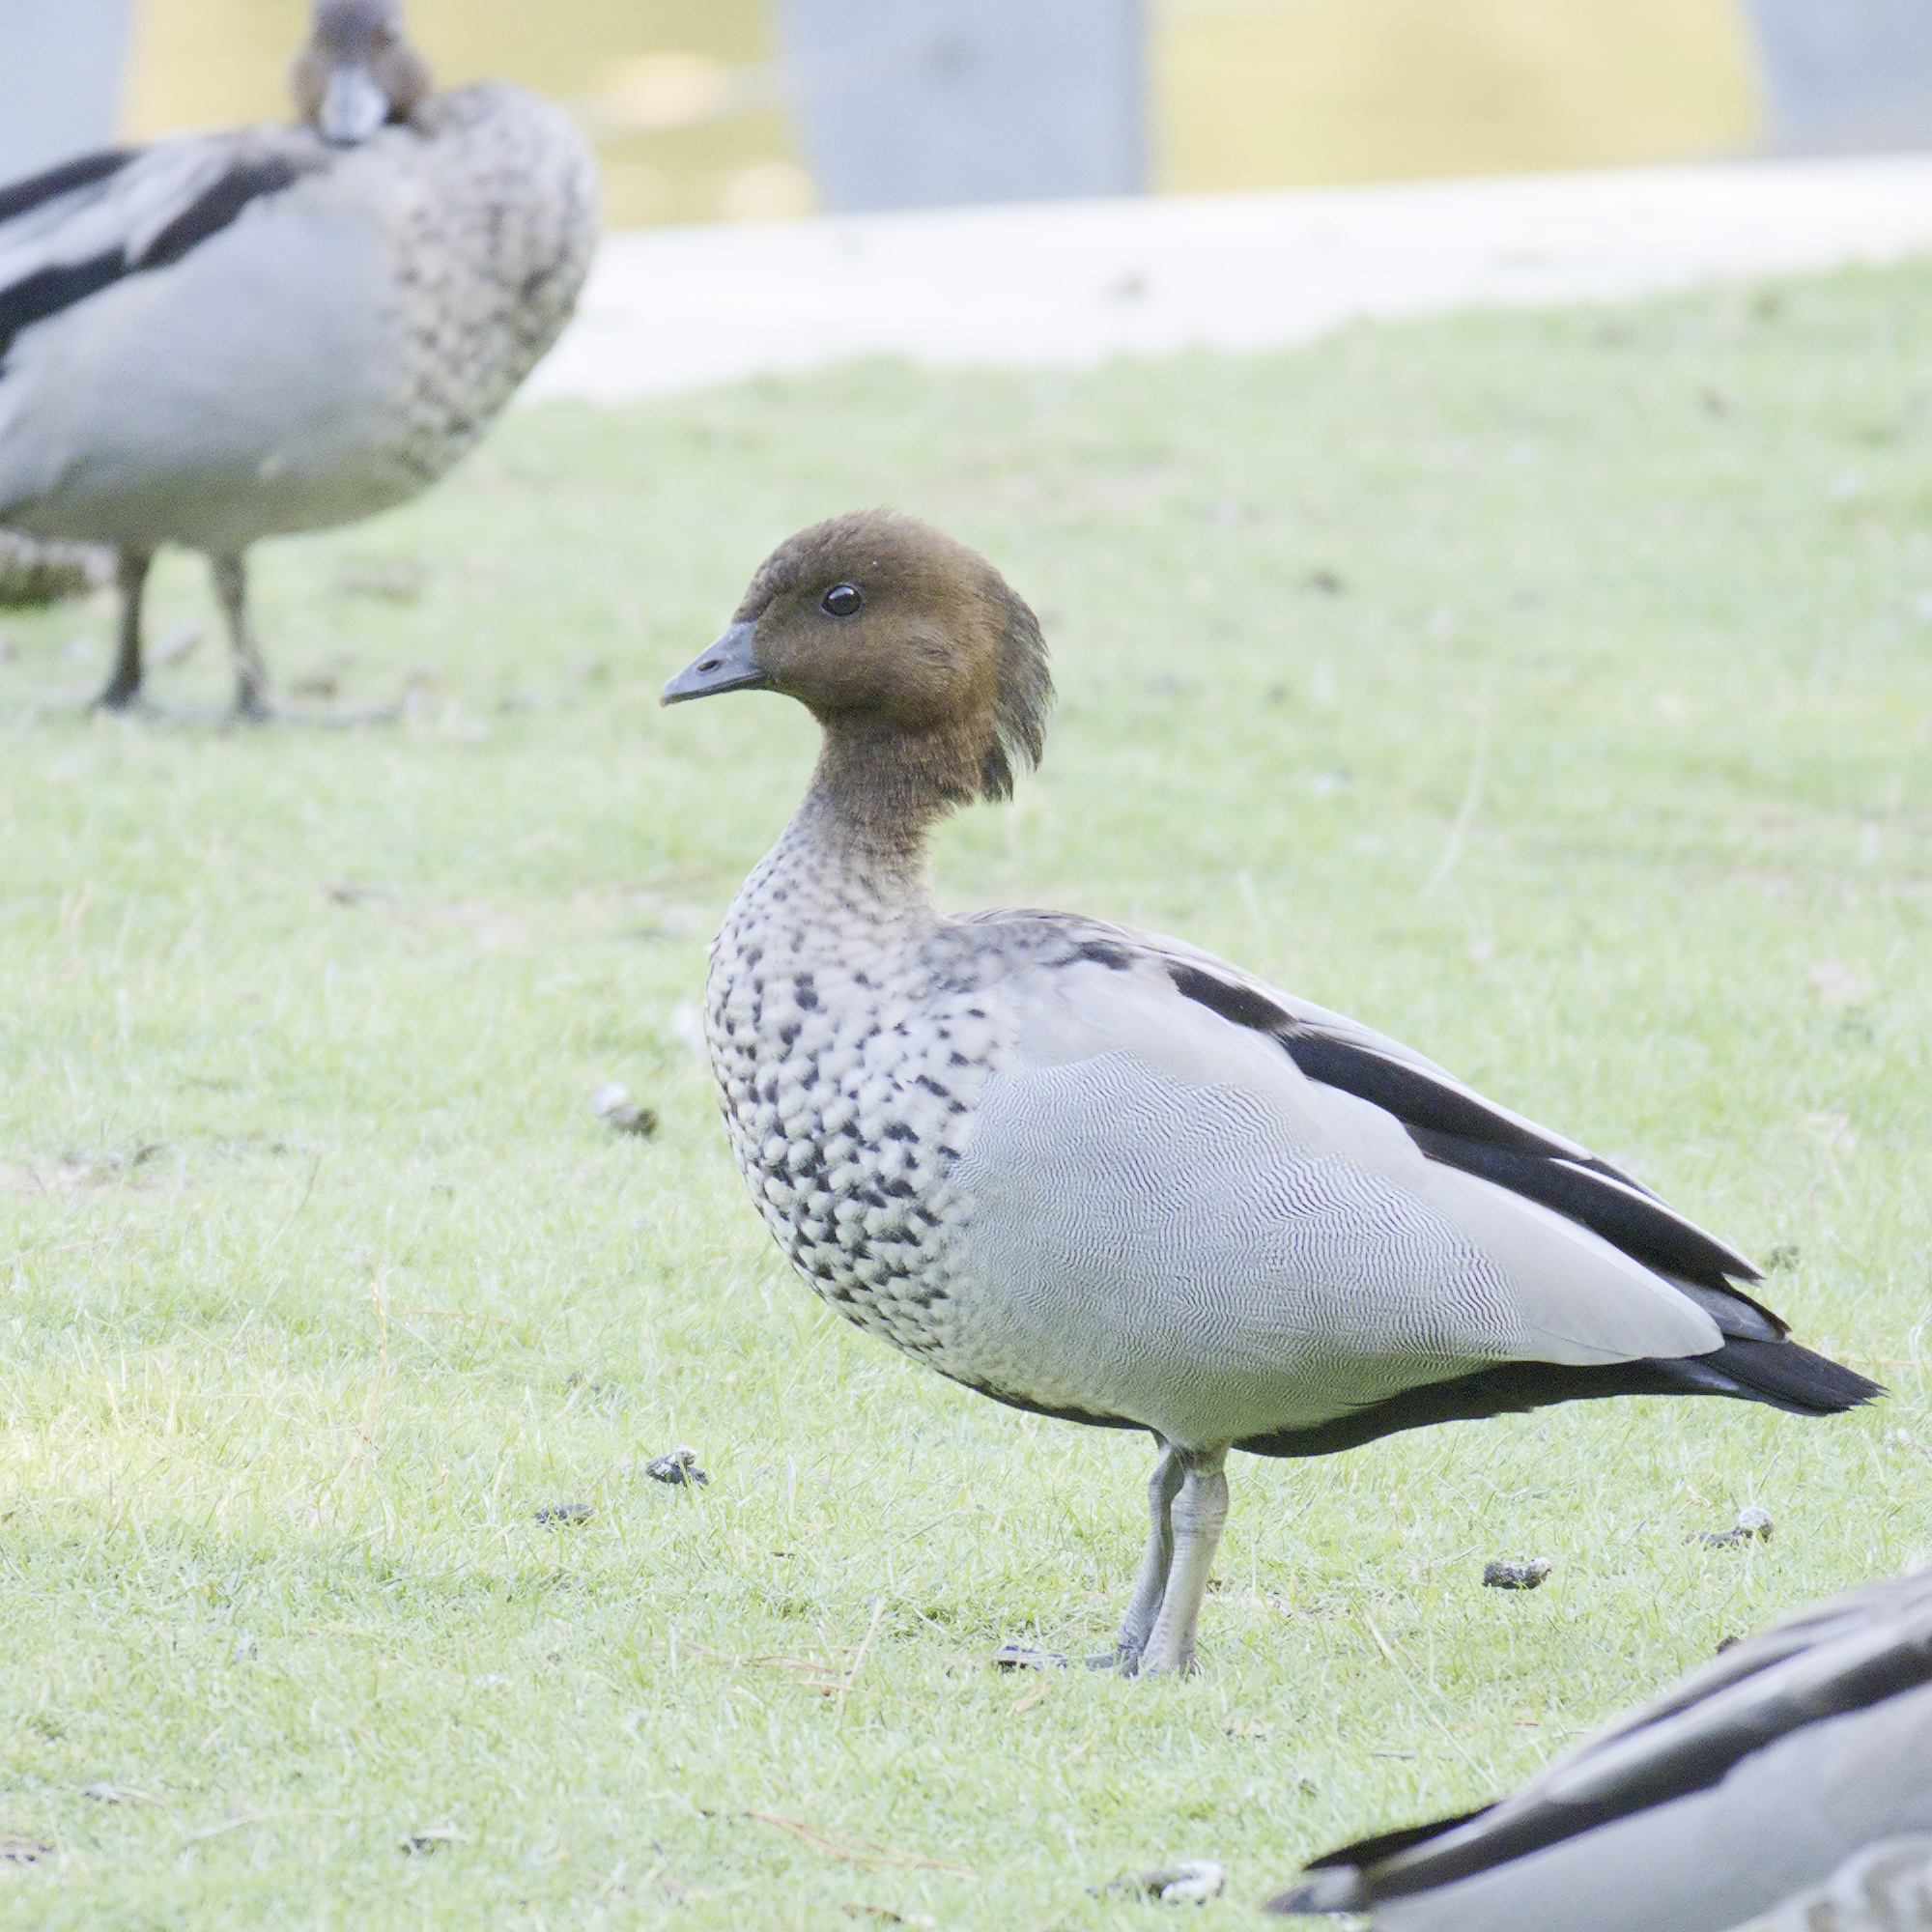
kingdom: Animalia
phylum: Chordata
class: Aves
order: Anseriformes
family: Anatidae
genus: Chenonetta
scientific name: Chenonetta jubata
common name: Maned duck
